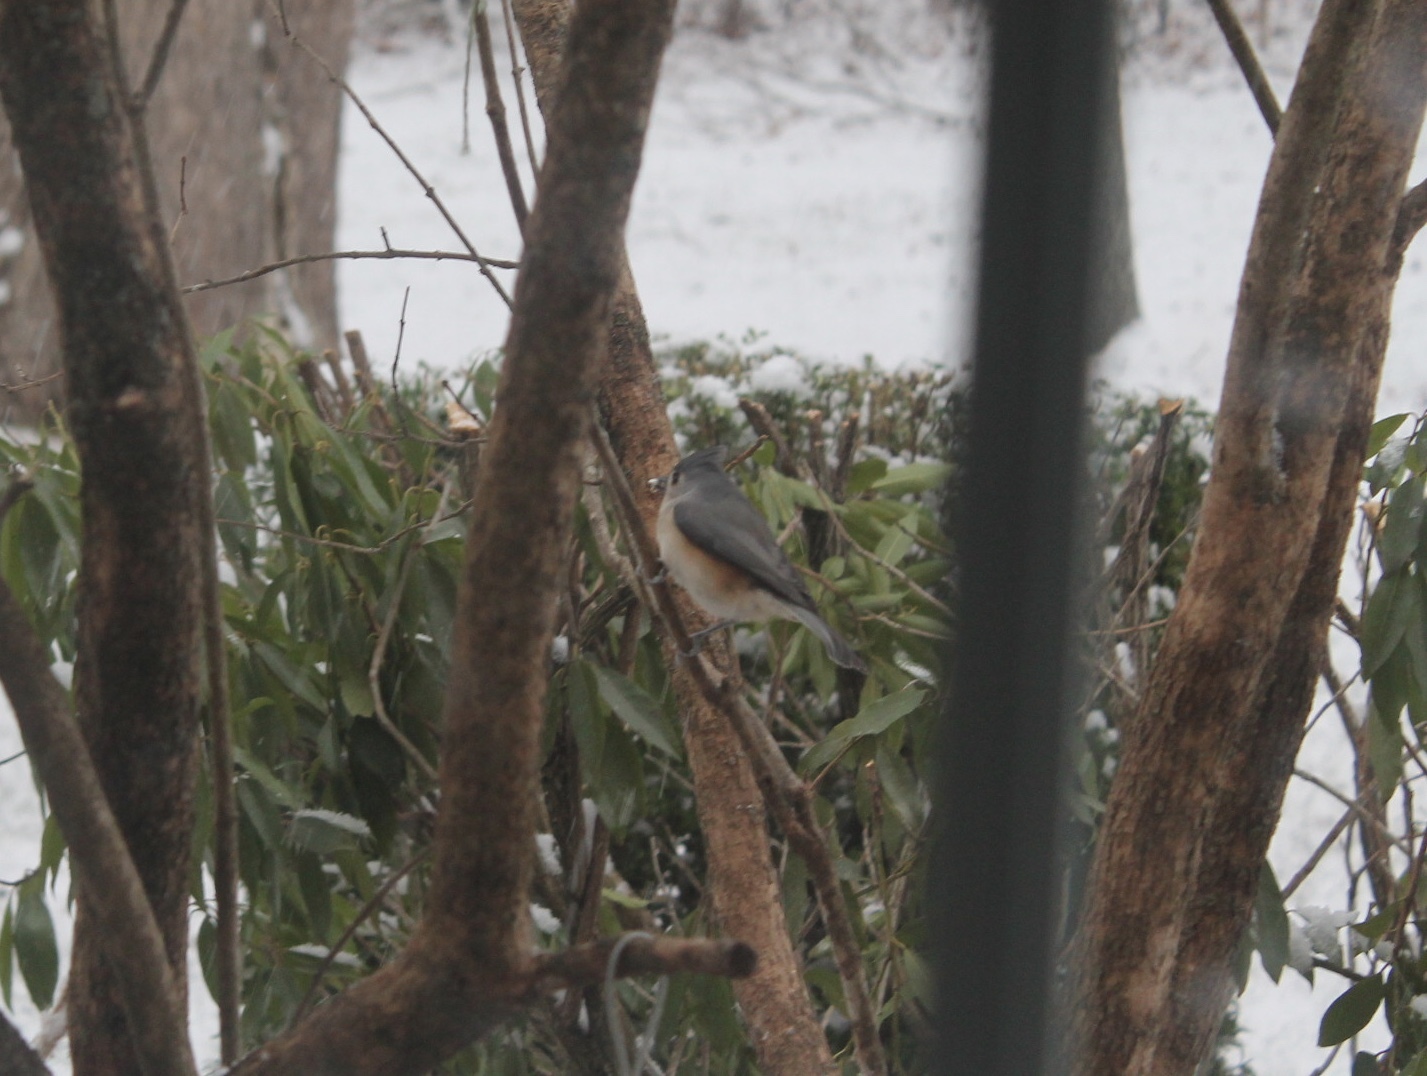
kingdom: Animalia
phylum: Chordata
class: Aves
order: Passeriformes
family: Paridae
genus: Baeolophus
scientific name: Baeolophus bicolor
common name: Tufted titmouse
